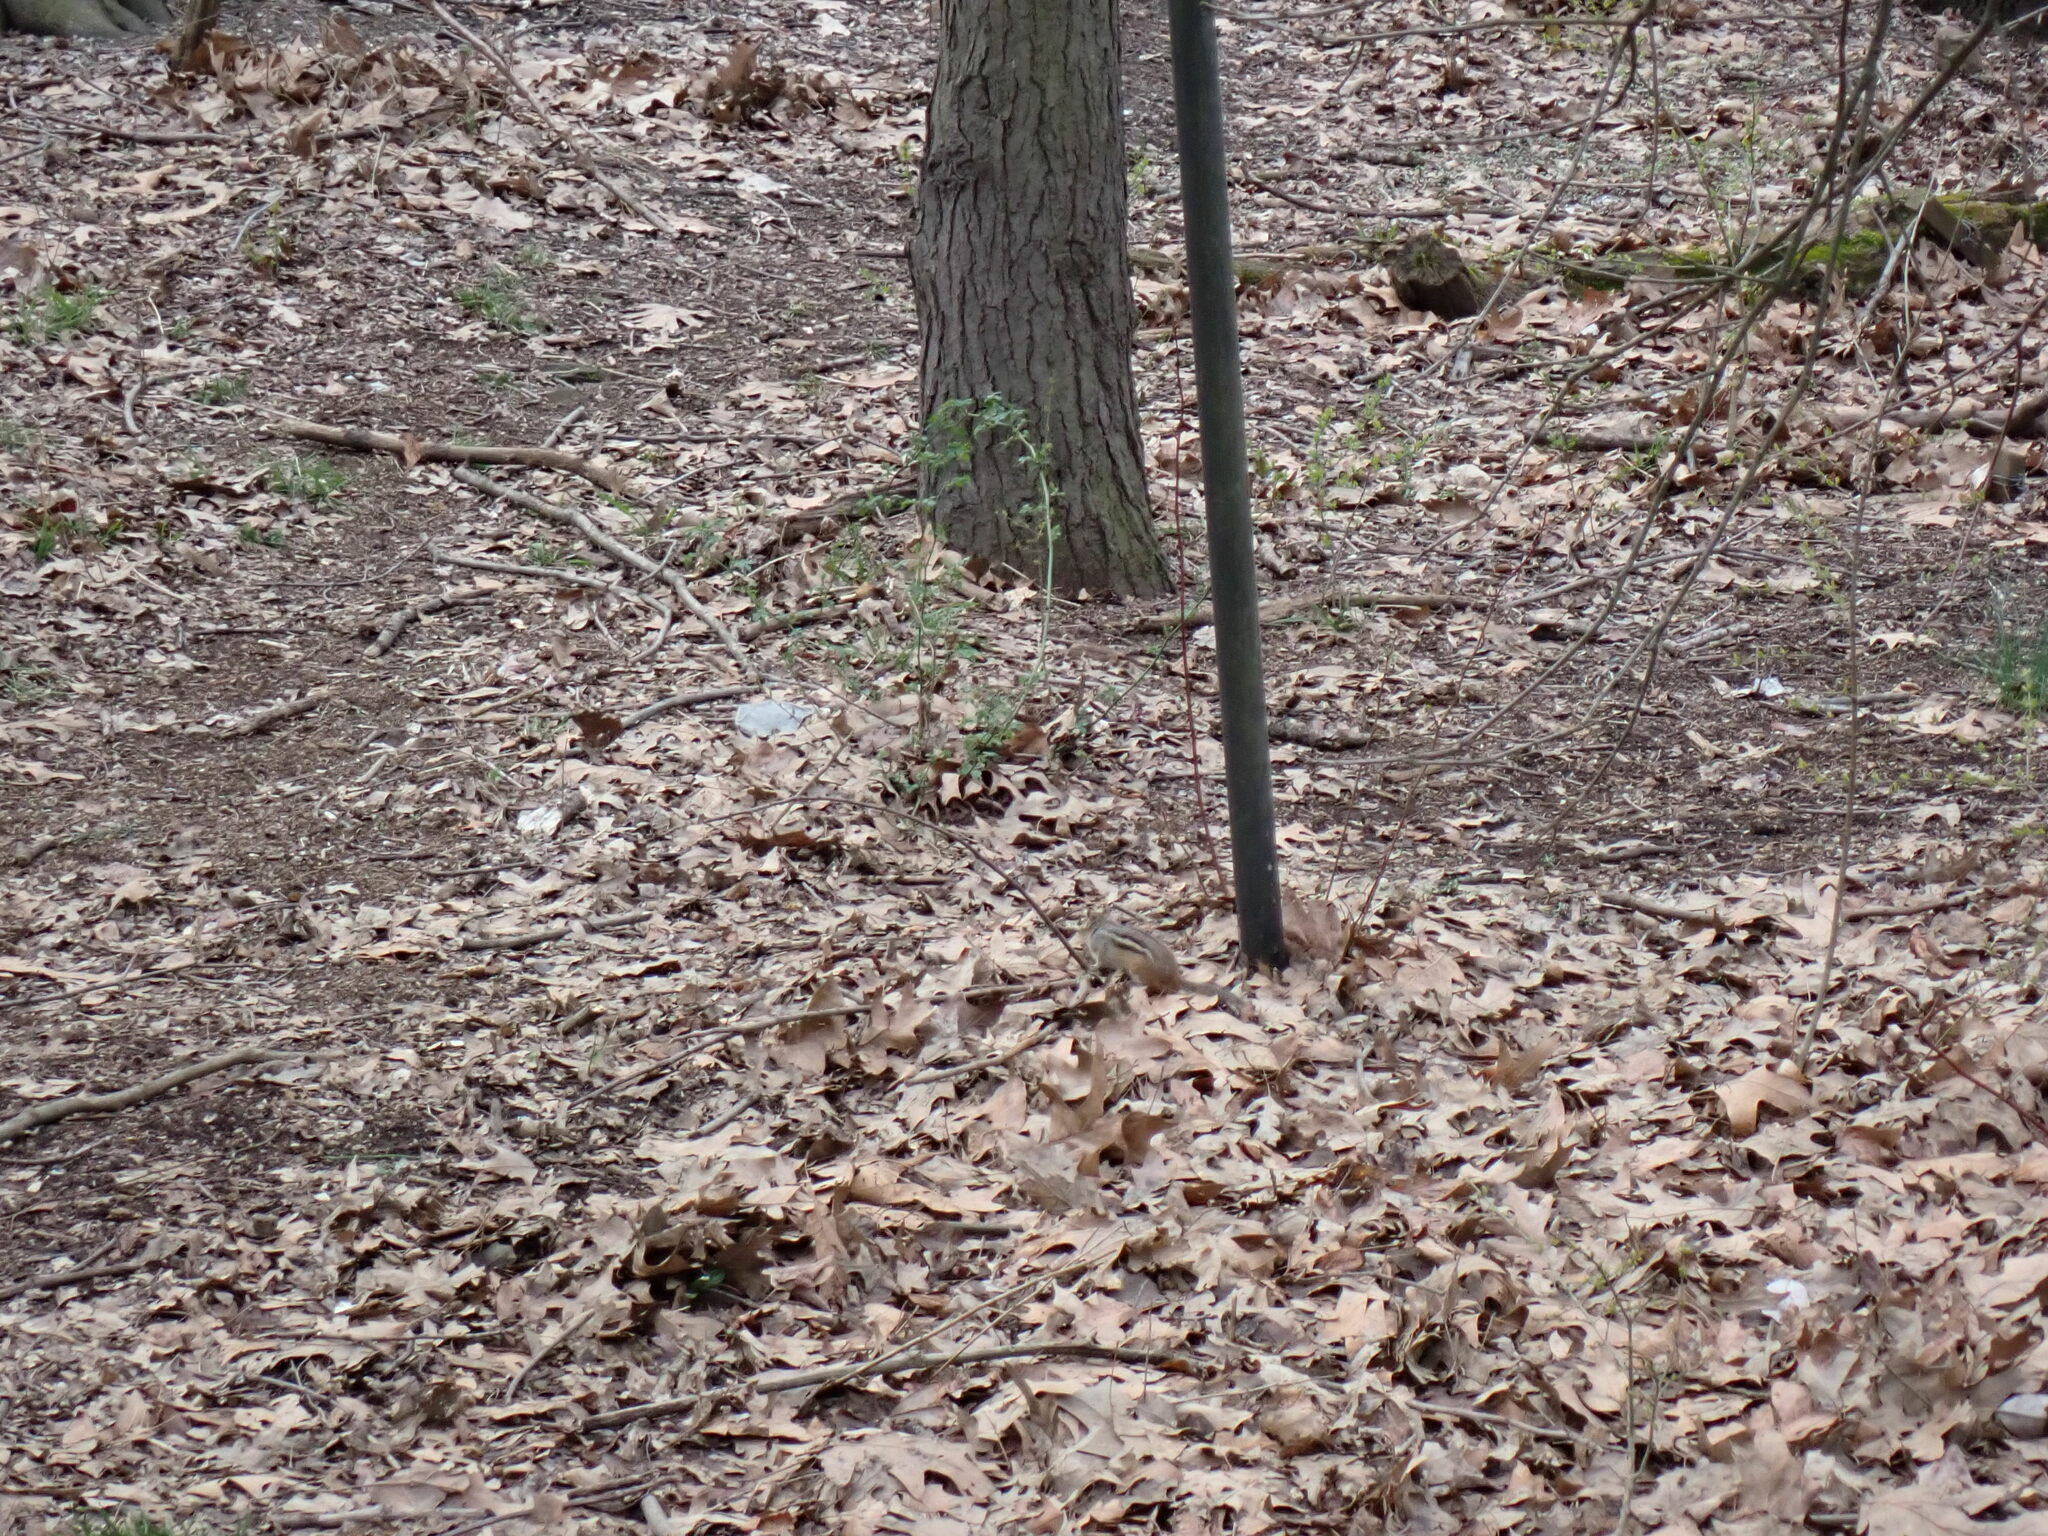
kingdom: Animalia
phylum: Chordata
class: Mammalia
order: Rodentia
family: Sciuridae
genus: Tamias
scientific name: Tamias striatus
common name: Eastern chipmunk
